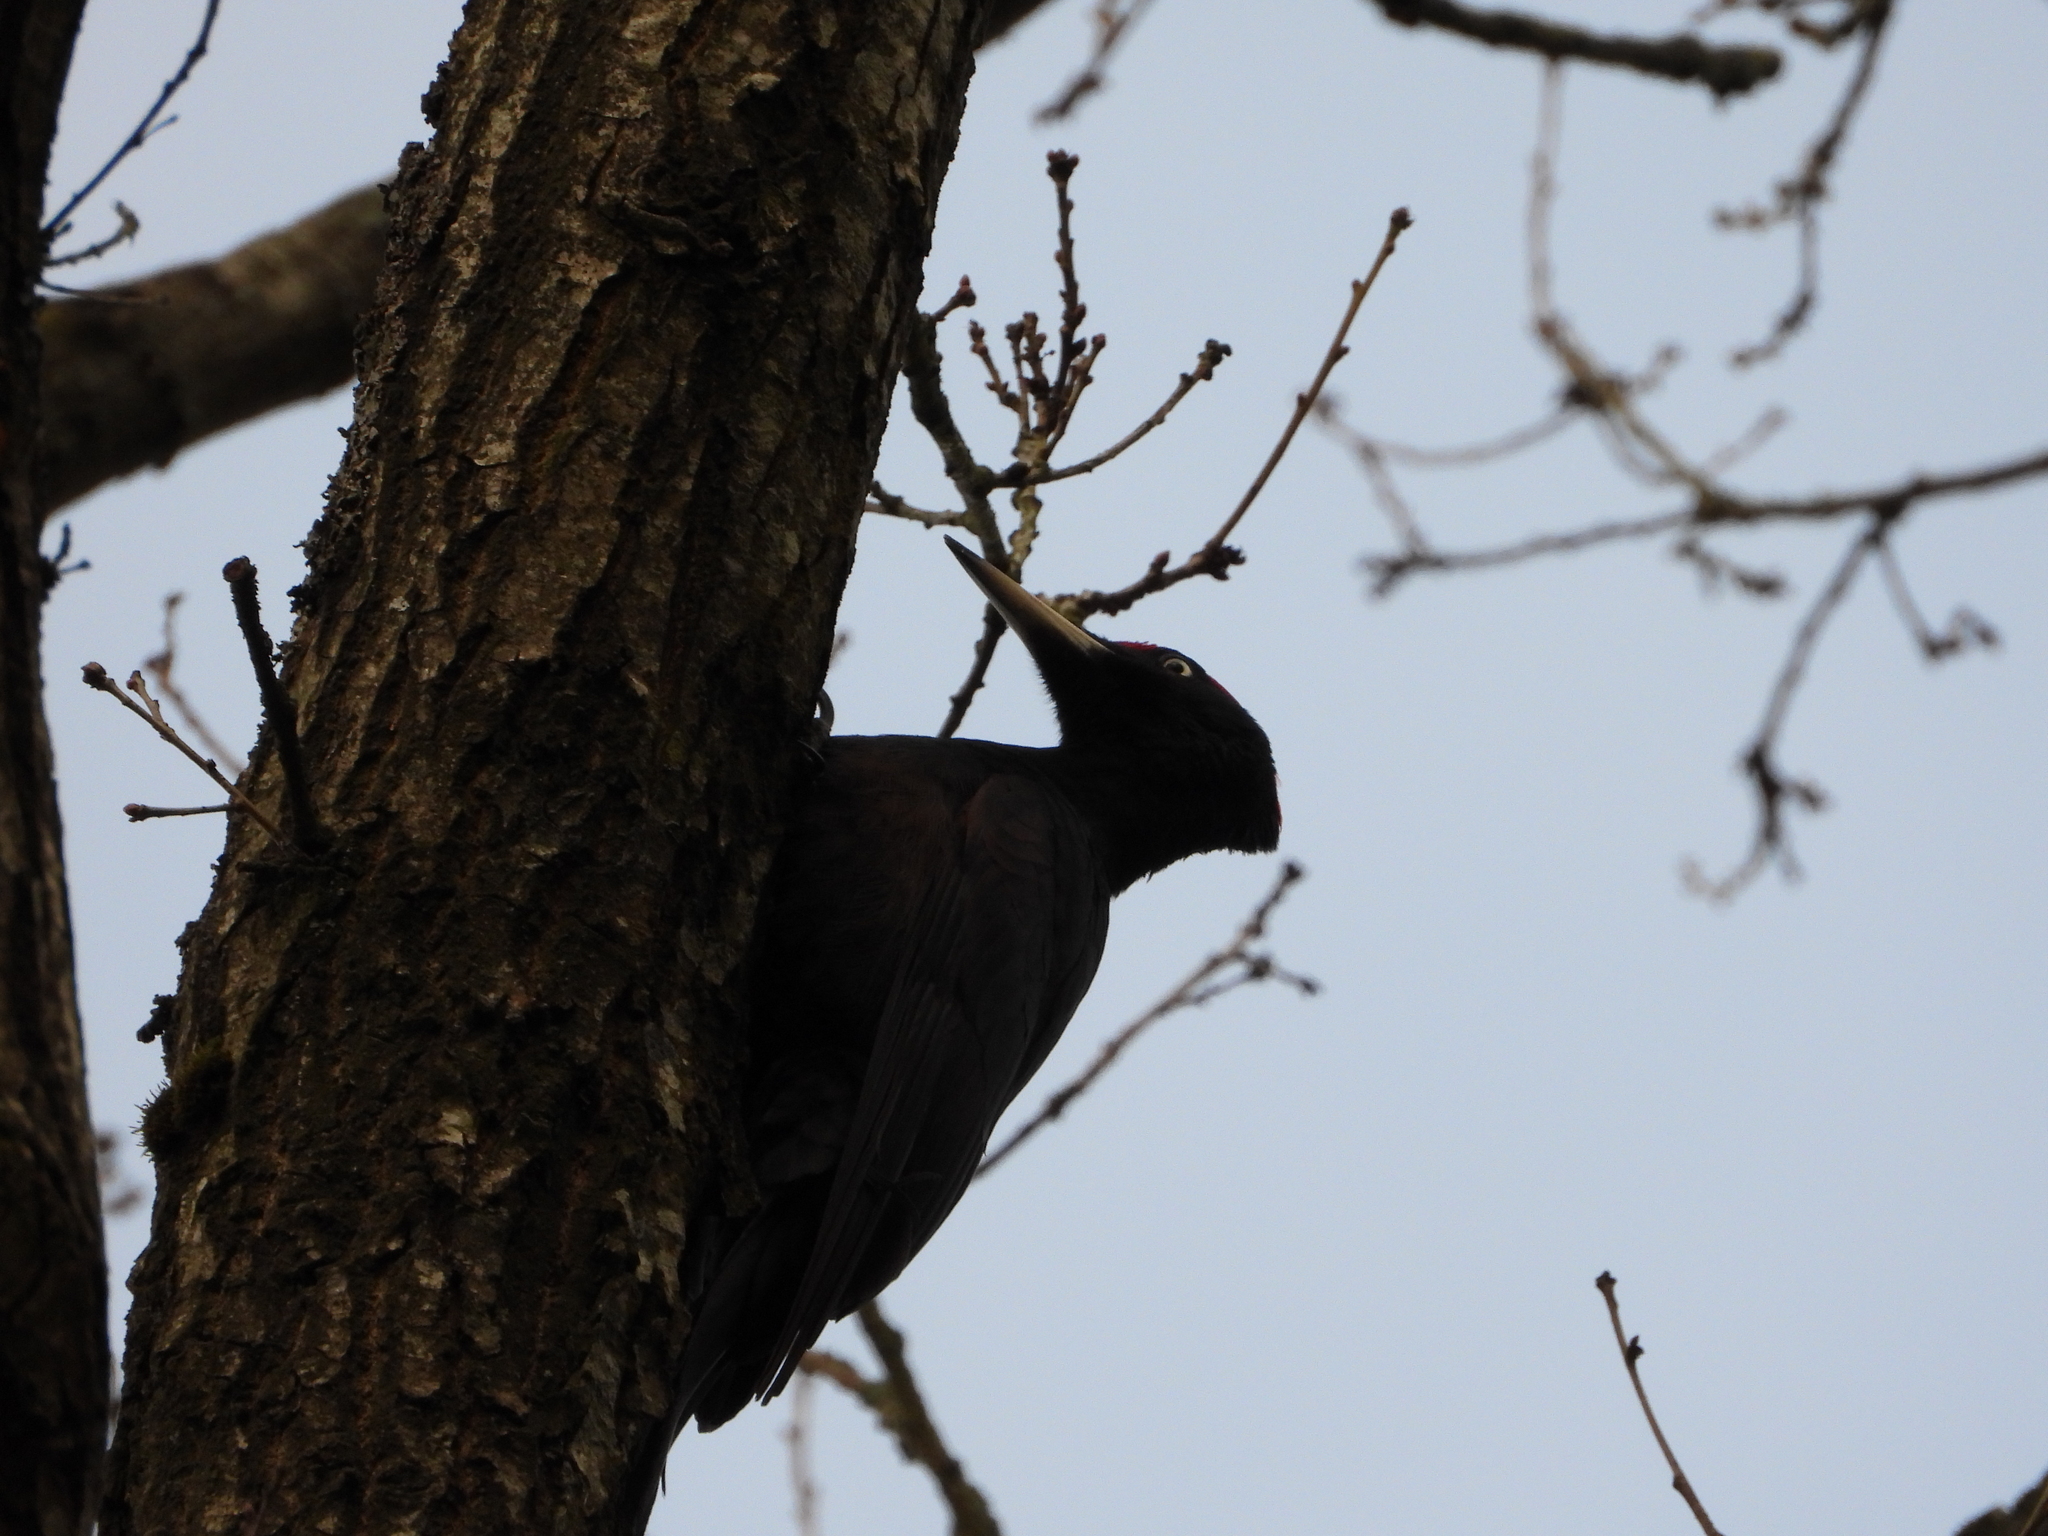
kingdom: Animalia
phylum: Chordata
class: Aves
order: Piciformes
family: Picidae
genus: Dryocopus
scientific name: Dryocopus martius
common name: Black woodpecker
